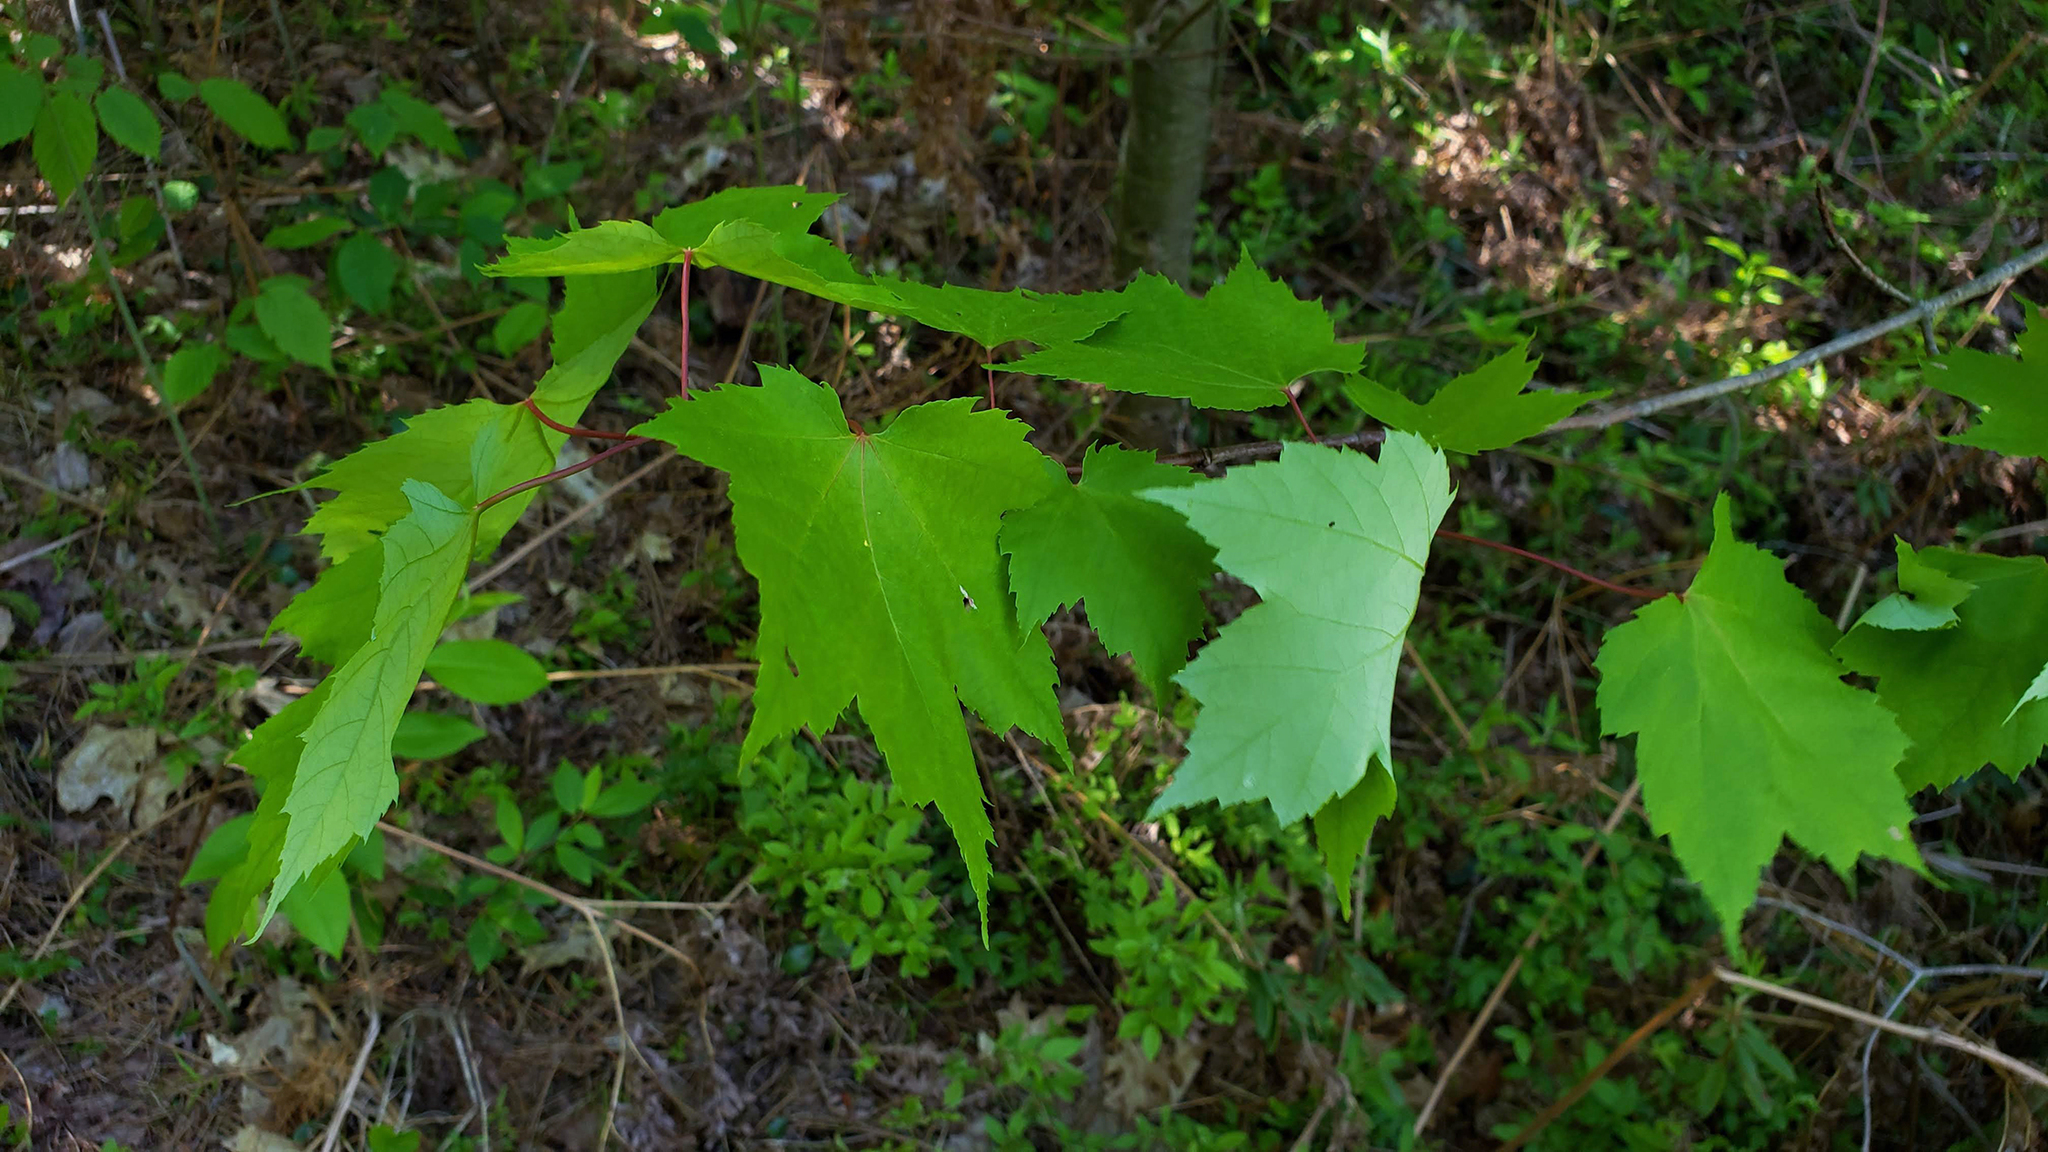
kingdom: Plantae
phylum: Tracheophyta
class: Magnoliopsida
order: Sapindales
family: Sapindaceae
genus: Acer
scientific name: Acer rubrum
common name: Red maple
